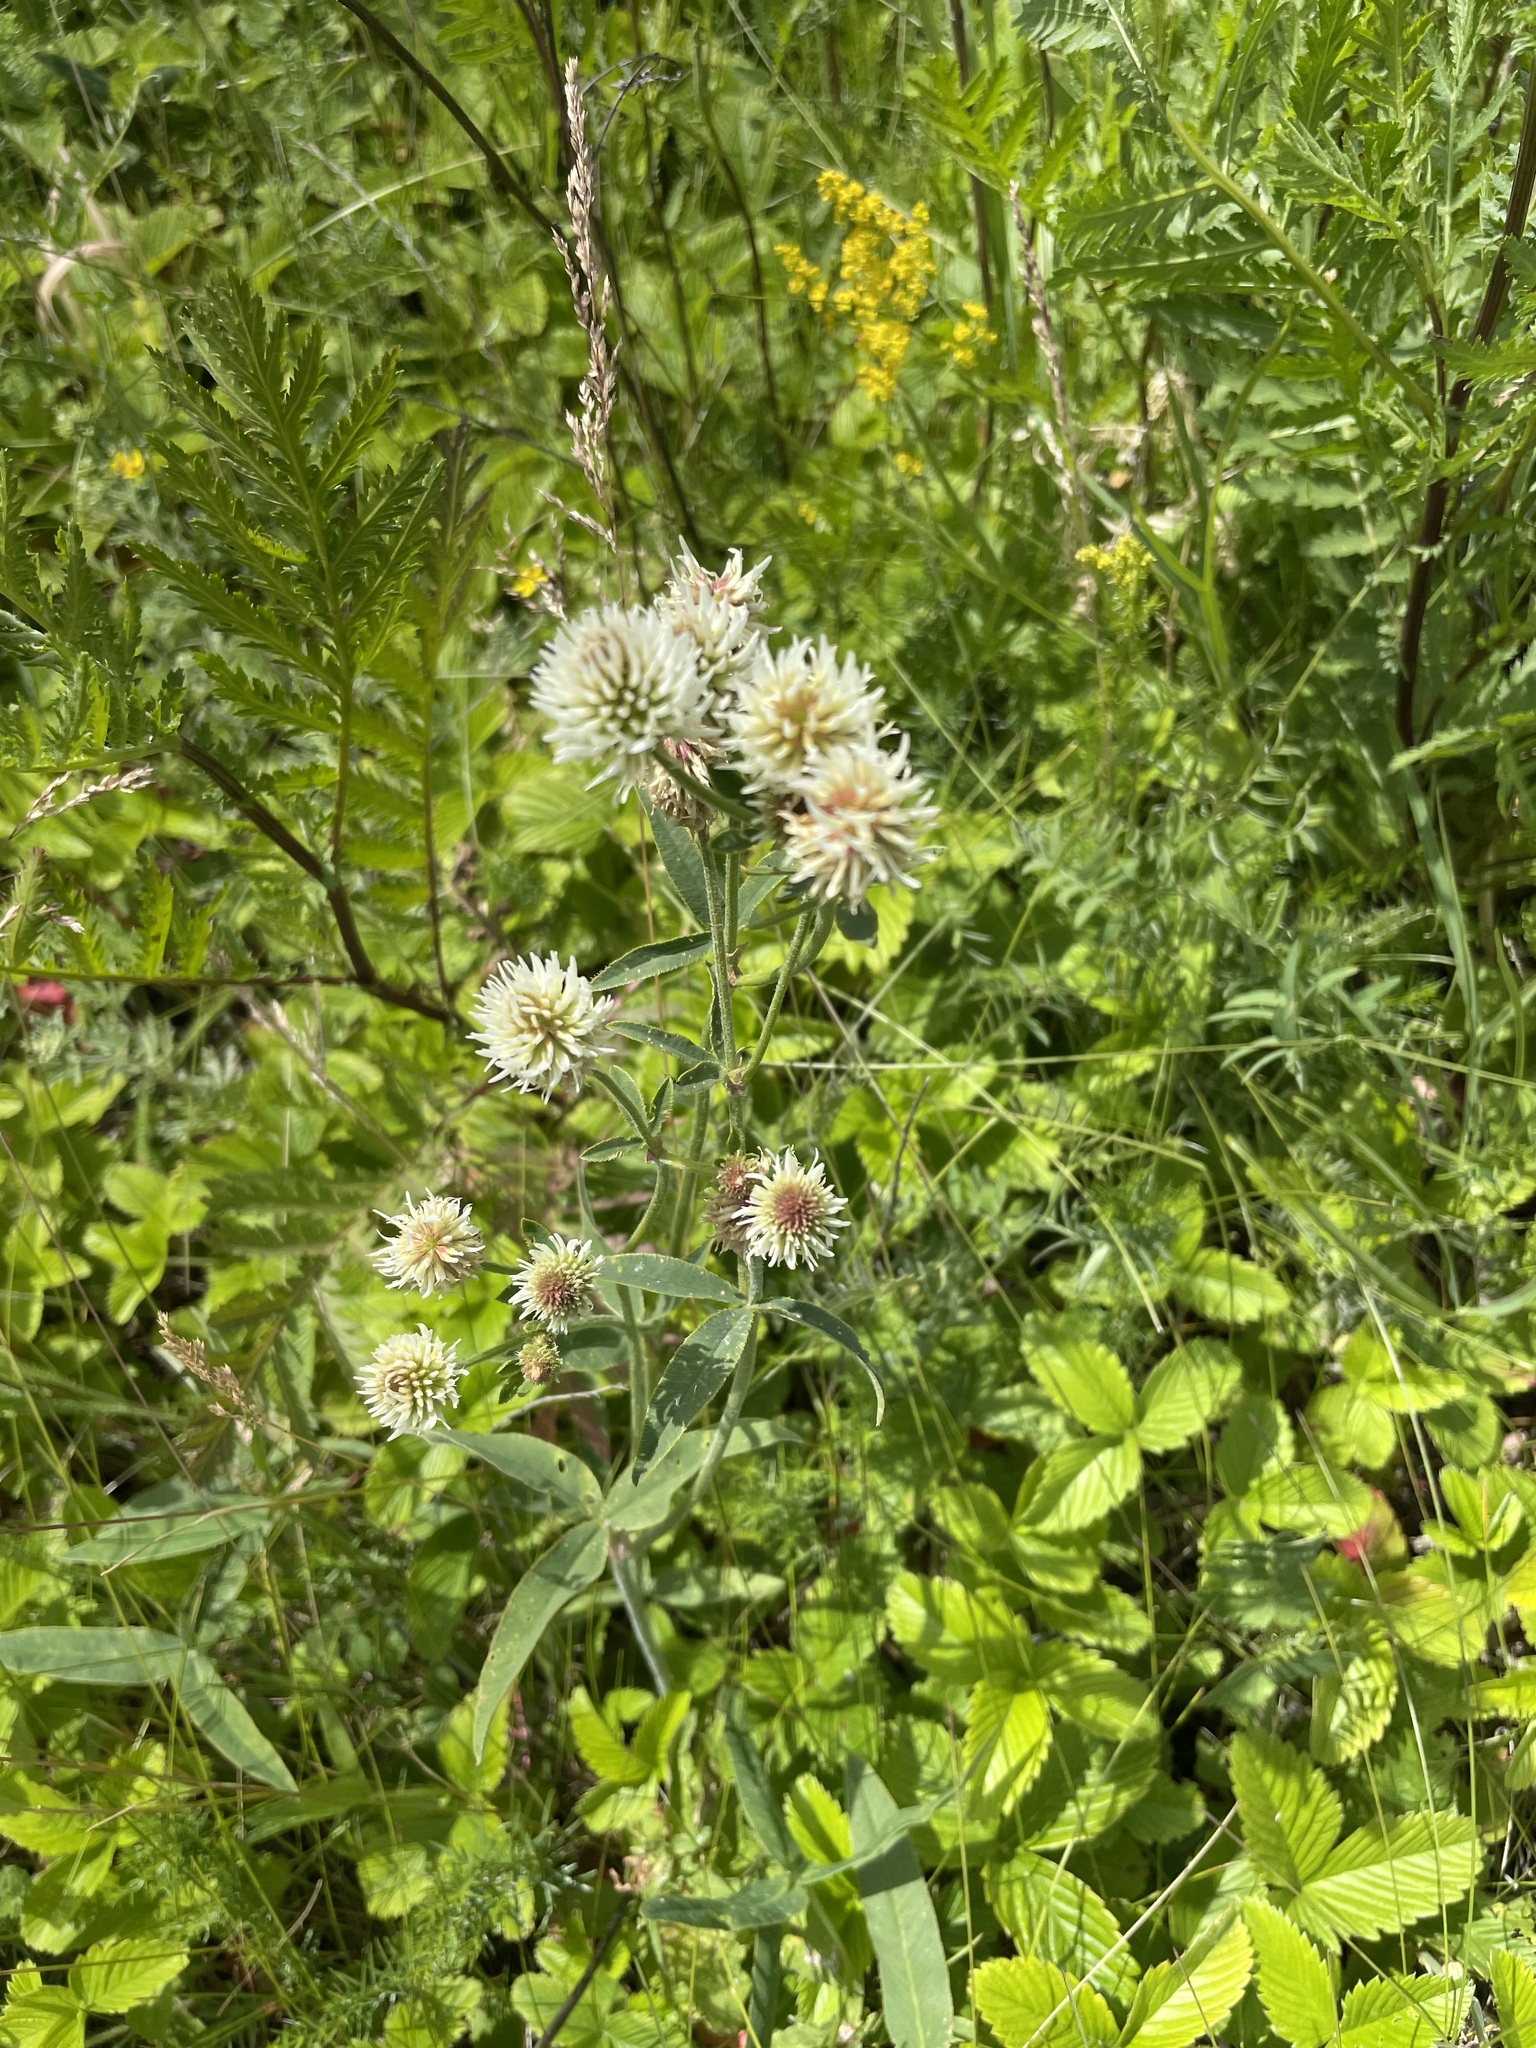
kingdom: Plantae
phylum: Tracheophyta
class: Magnoliopsida
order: Fabales
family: Fabaceae
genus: Trifolium
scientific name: Trifolium montanum
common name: Mountain clover
